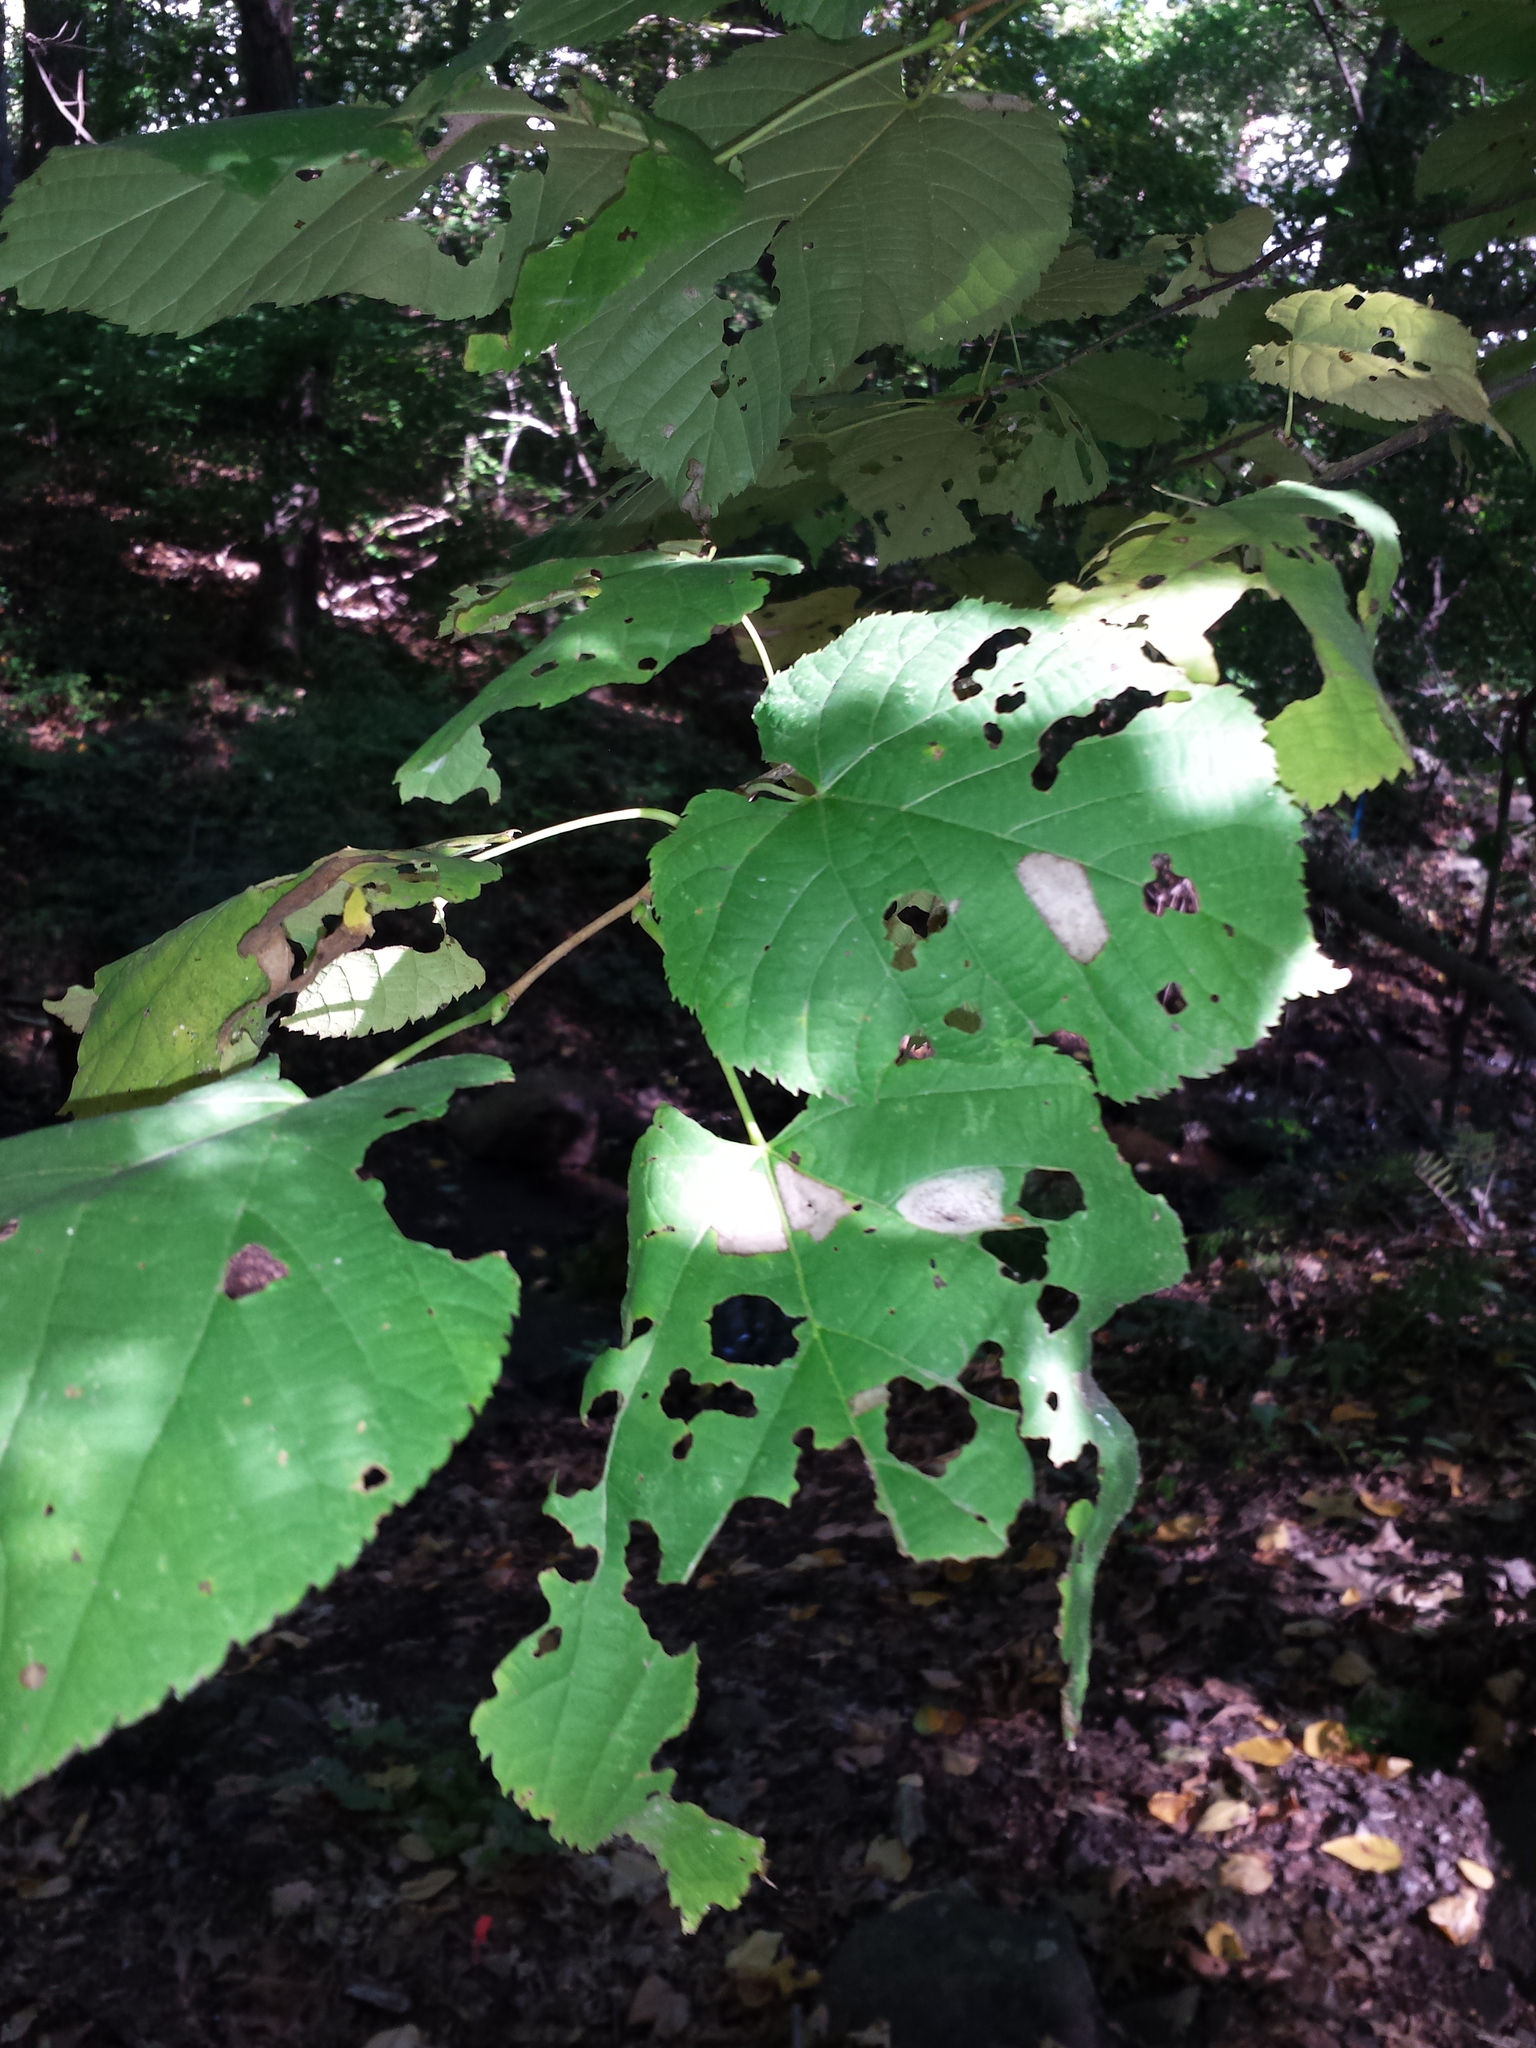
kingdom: Plantae
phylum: Tracheophyta
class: Magnoliopsida
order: Malvales
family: Malvaceae
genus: Tilia
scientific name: Tilia americana
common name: Basswood
